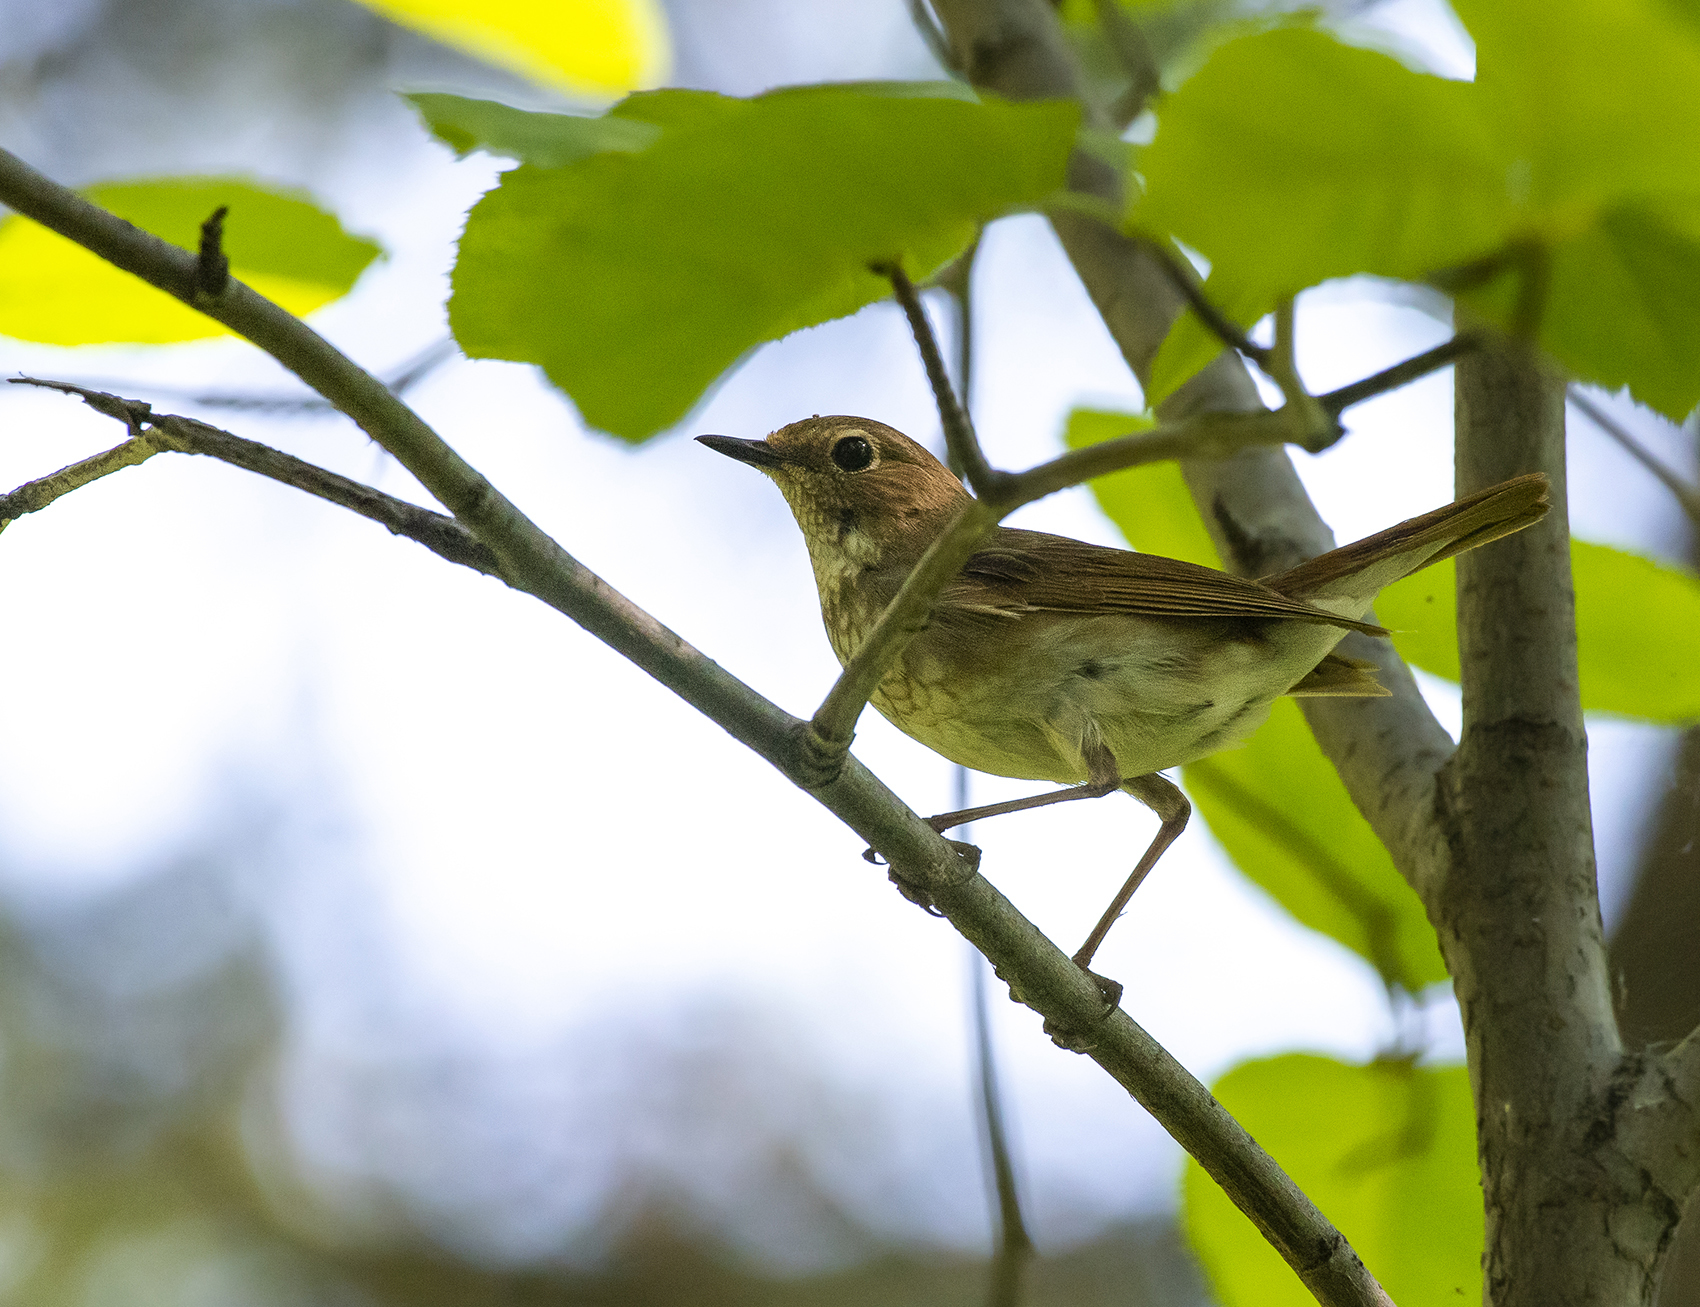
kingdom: Animalia
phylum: Chordata
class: Aves
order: Passeriformes
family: Muscicapidae
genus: Larvivora
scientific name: Larvivora sibilans
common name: Rufous-tailed robin
